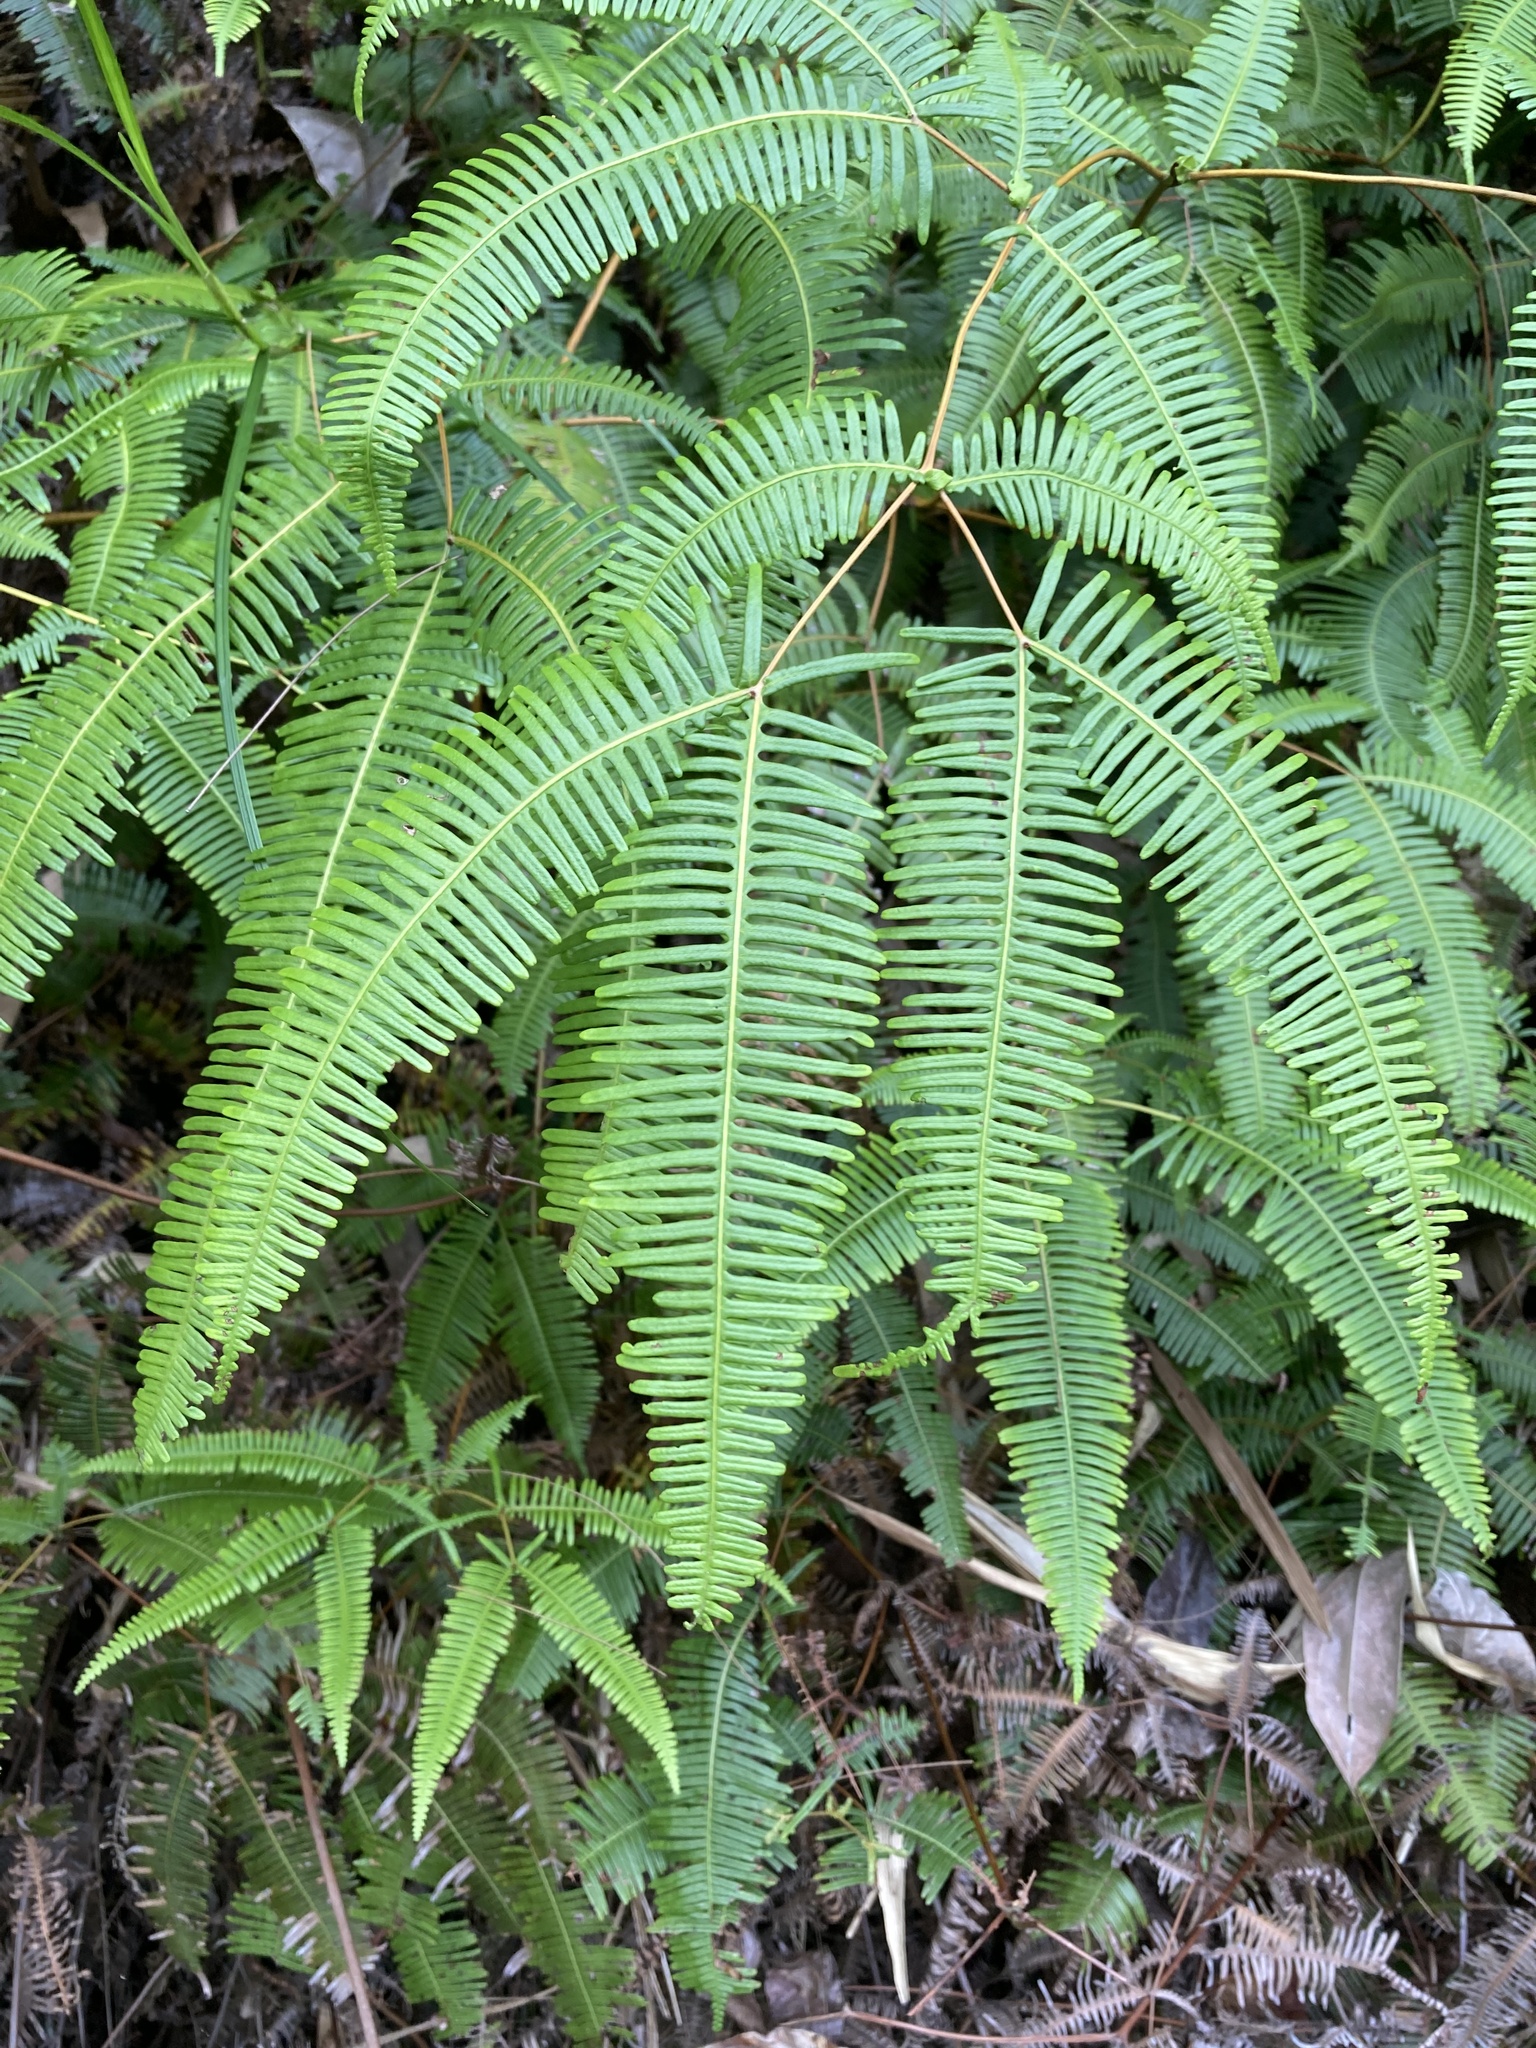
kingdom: Plantae
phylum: Tracheophyta
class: Polypodiopsida
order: Gleicheniales
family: Gleicheniaceae
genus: Dicranopteris
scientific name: Dicranopteris linearis
